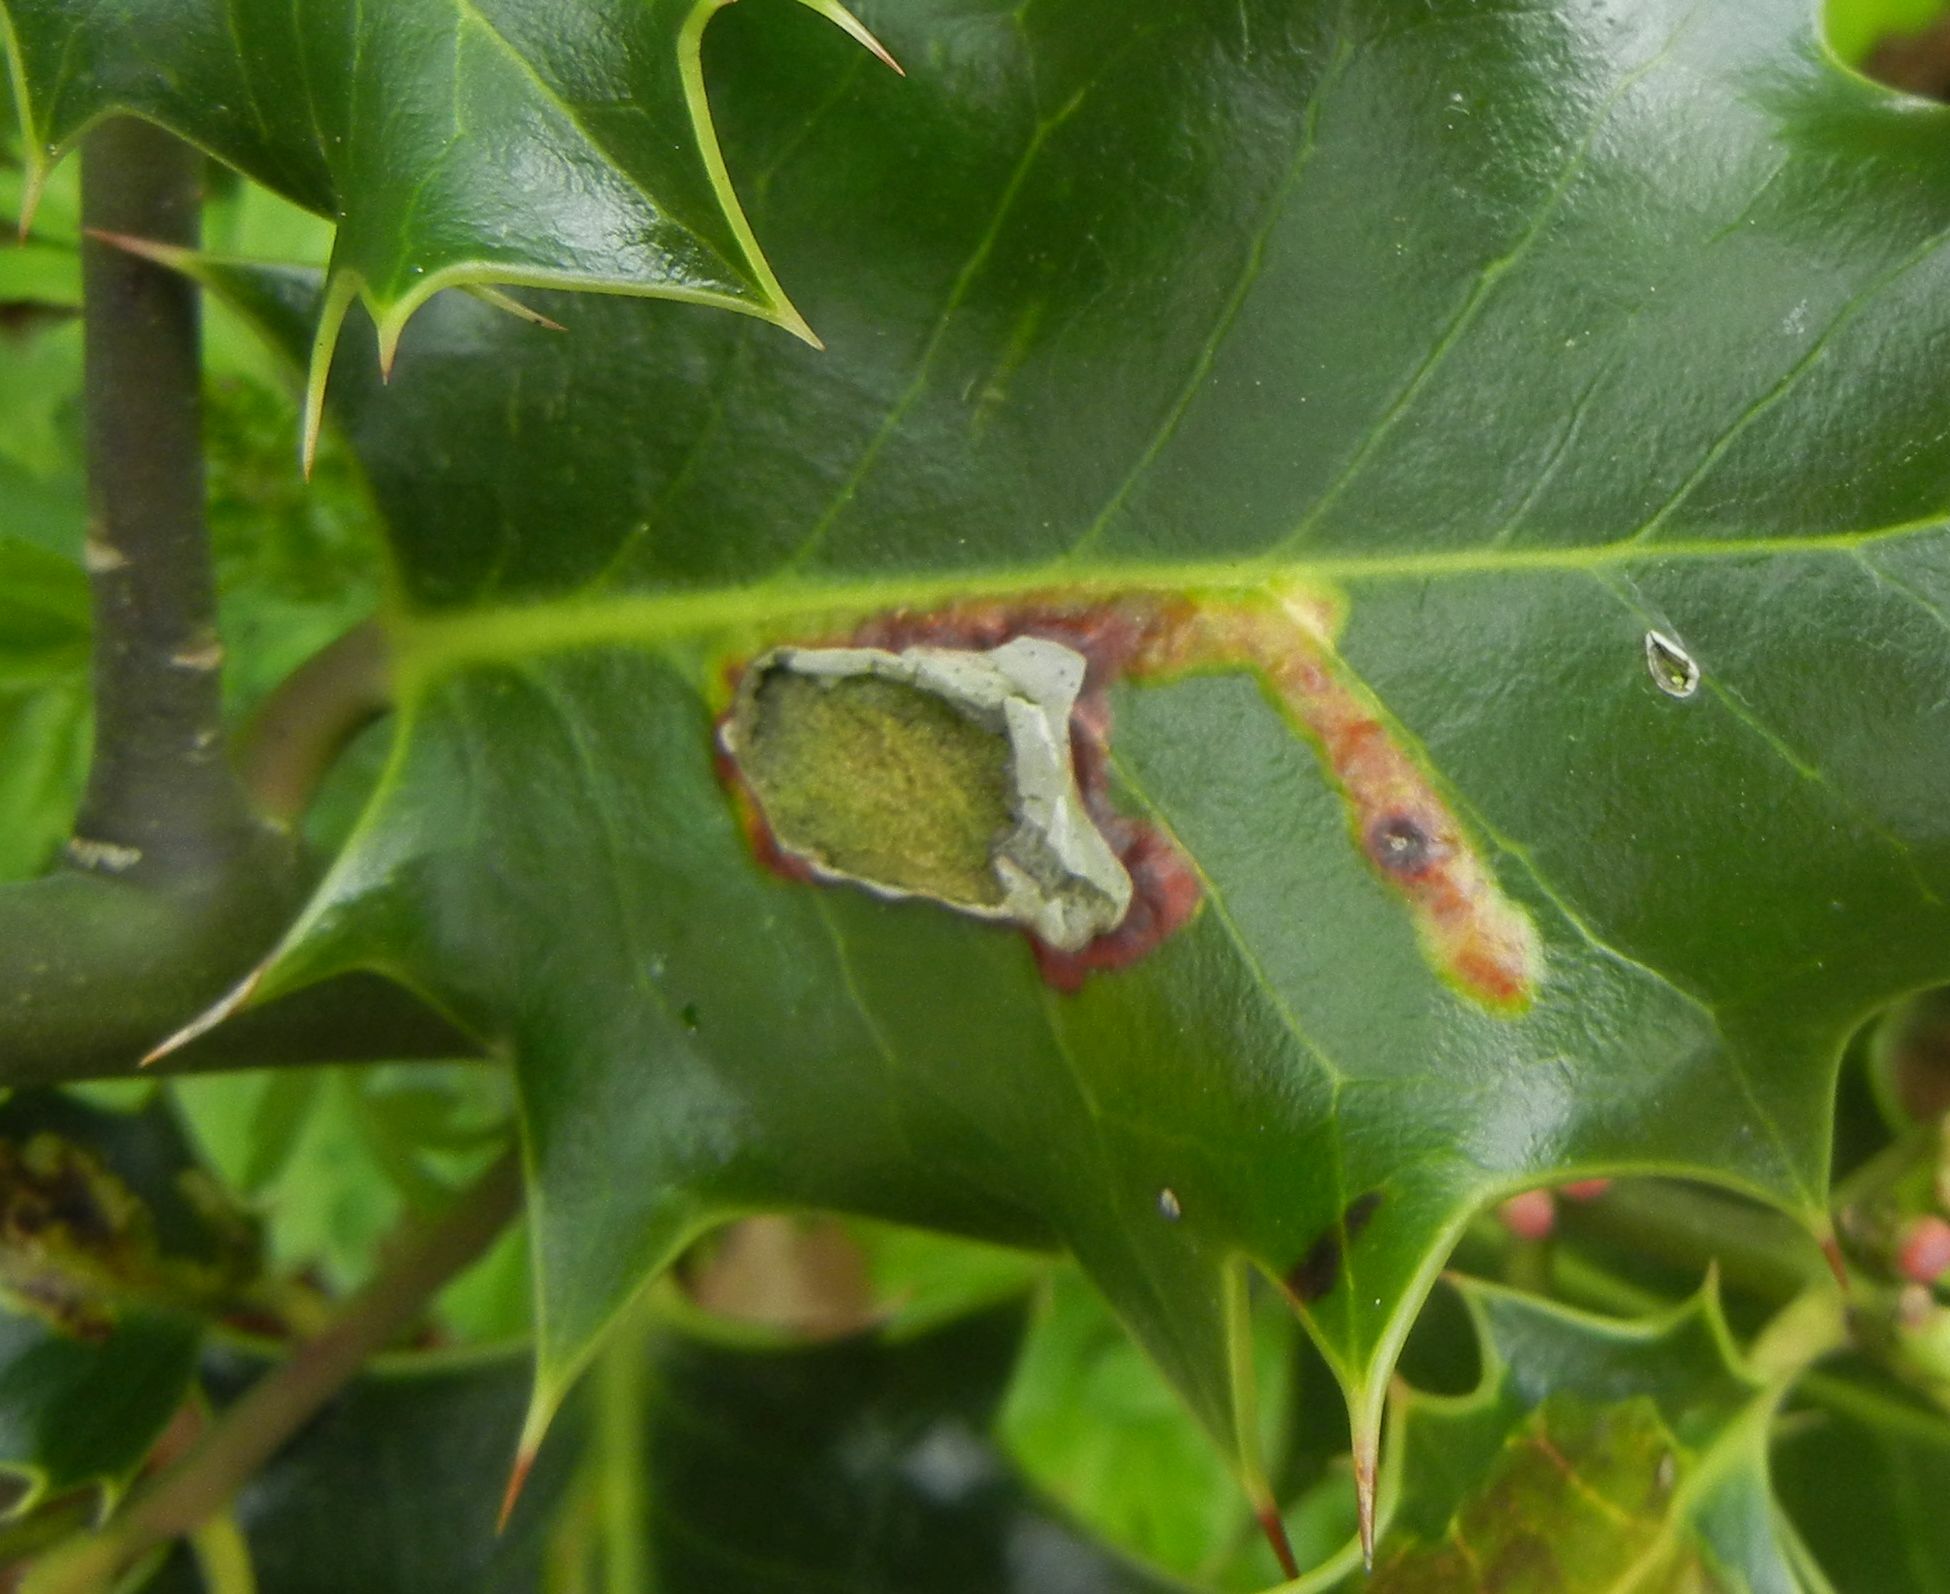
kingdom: Animalia
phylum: Arthropoda
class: Insecta
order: Diptera
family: Agromyzidae
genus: Phytomyza
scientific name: Phytomyza ilicis
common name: Holly leafminer
